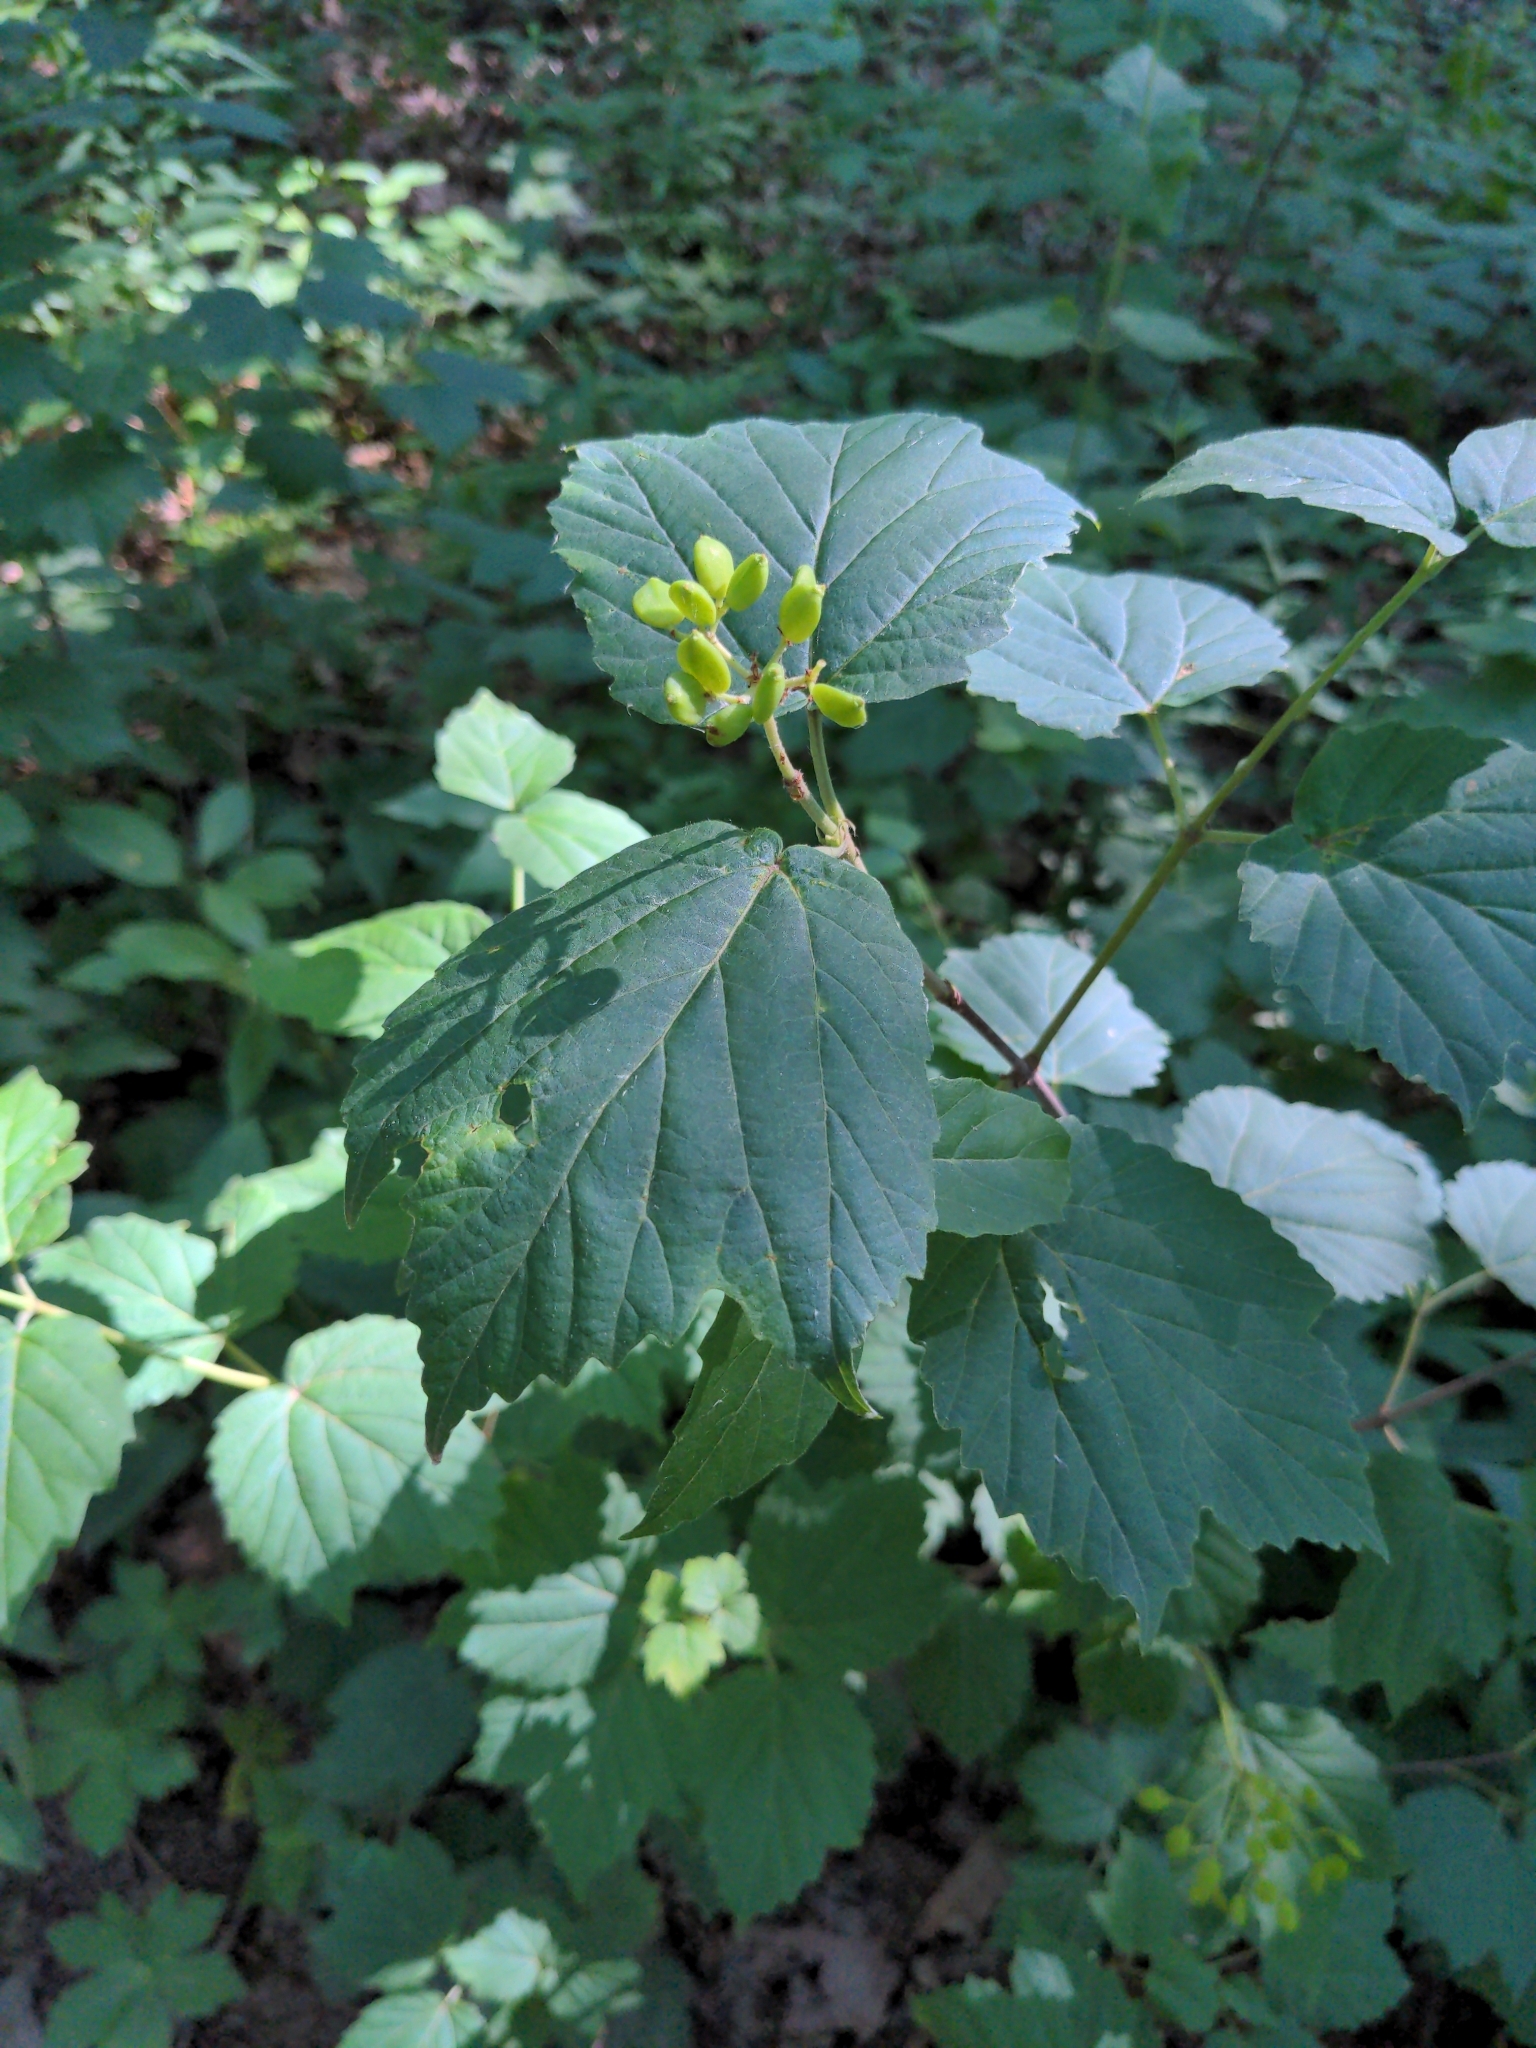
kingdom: Plantae
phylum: Tracheophyta
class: Magnoliopsida
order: Dipsacales
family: Viburnaceae
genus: Viburnum
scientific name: Viburnum acerifolium
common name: Dockmackie
